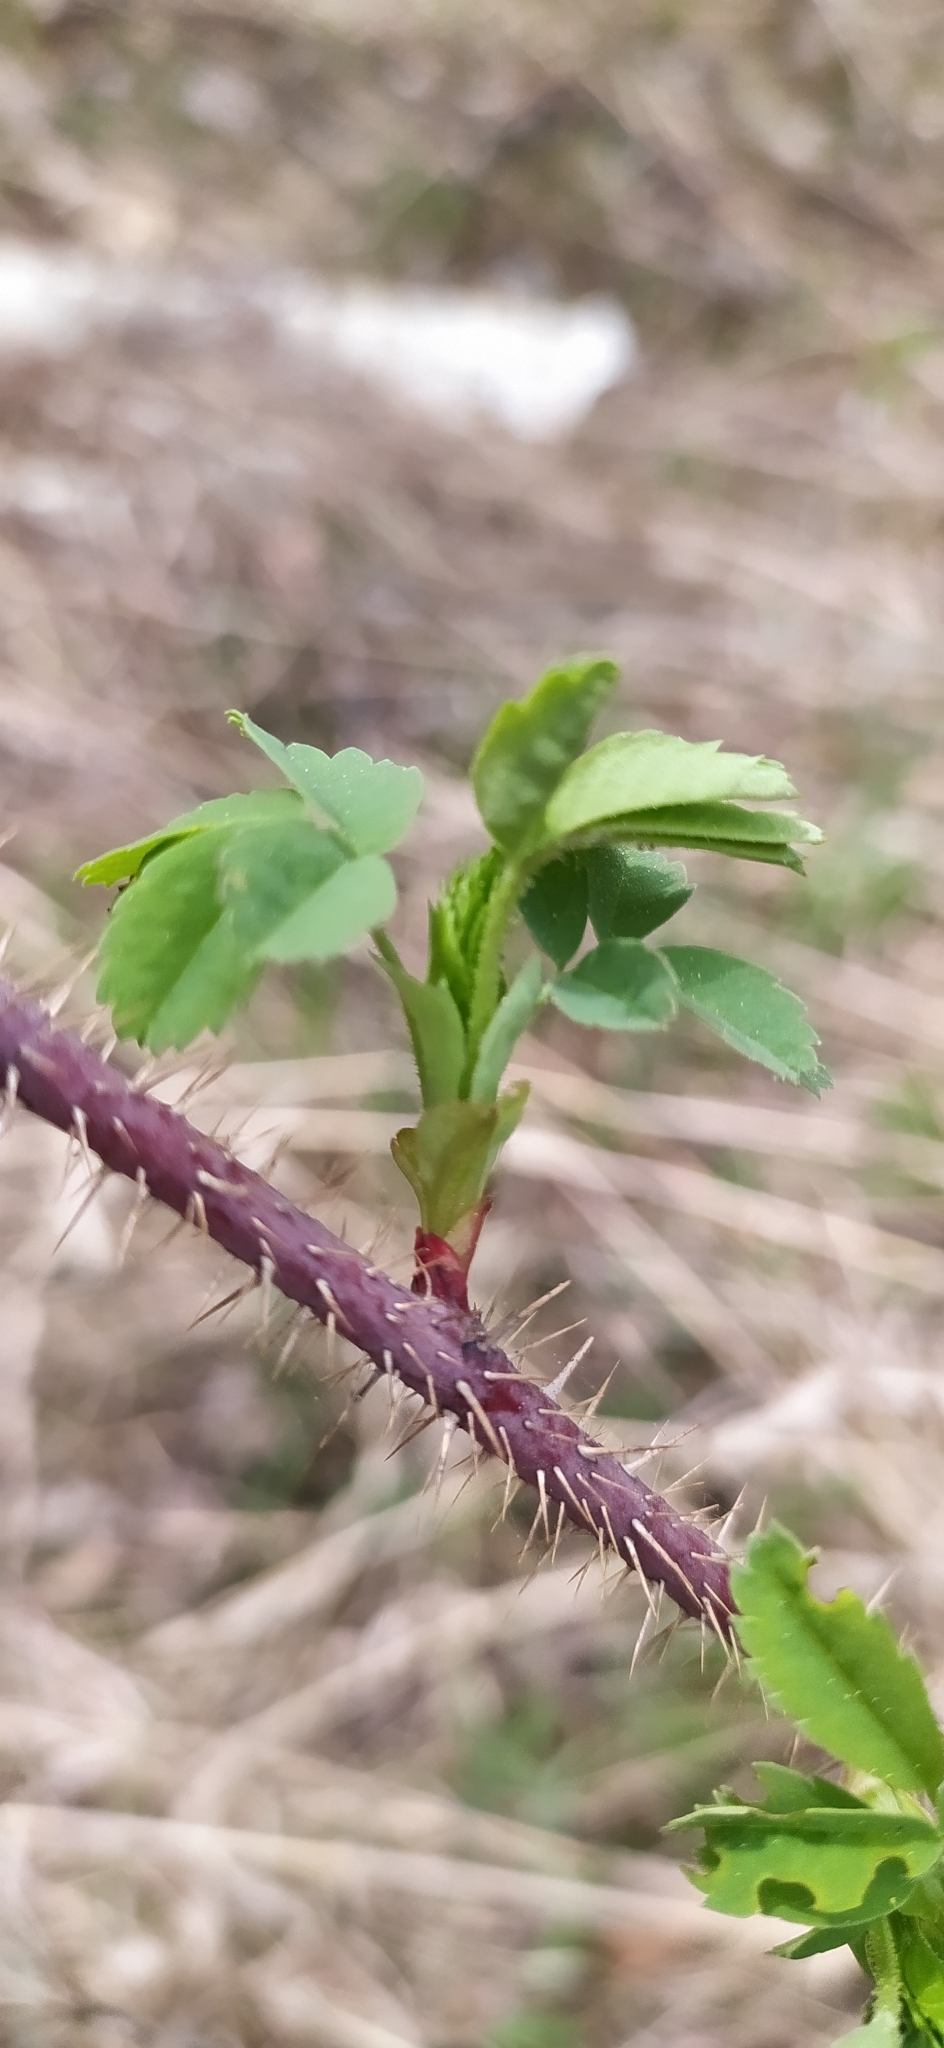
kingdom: Plantae
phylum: Tracheophyta
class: Magnoliopsida
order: Rosales
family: Rosaceae
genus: Rosa
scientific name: Rosa acicularis
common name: Prickly rose
